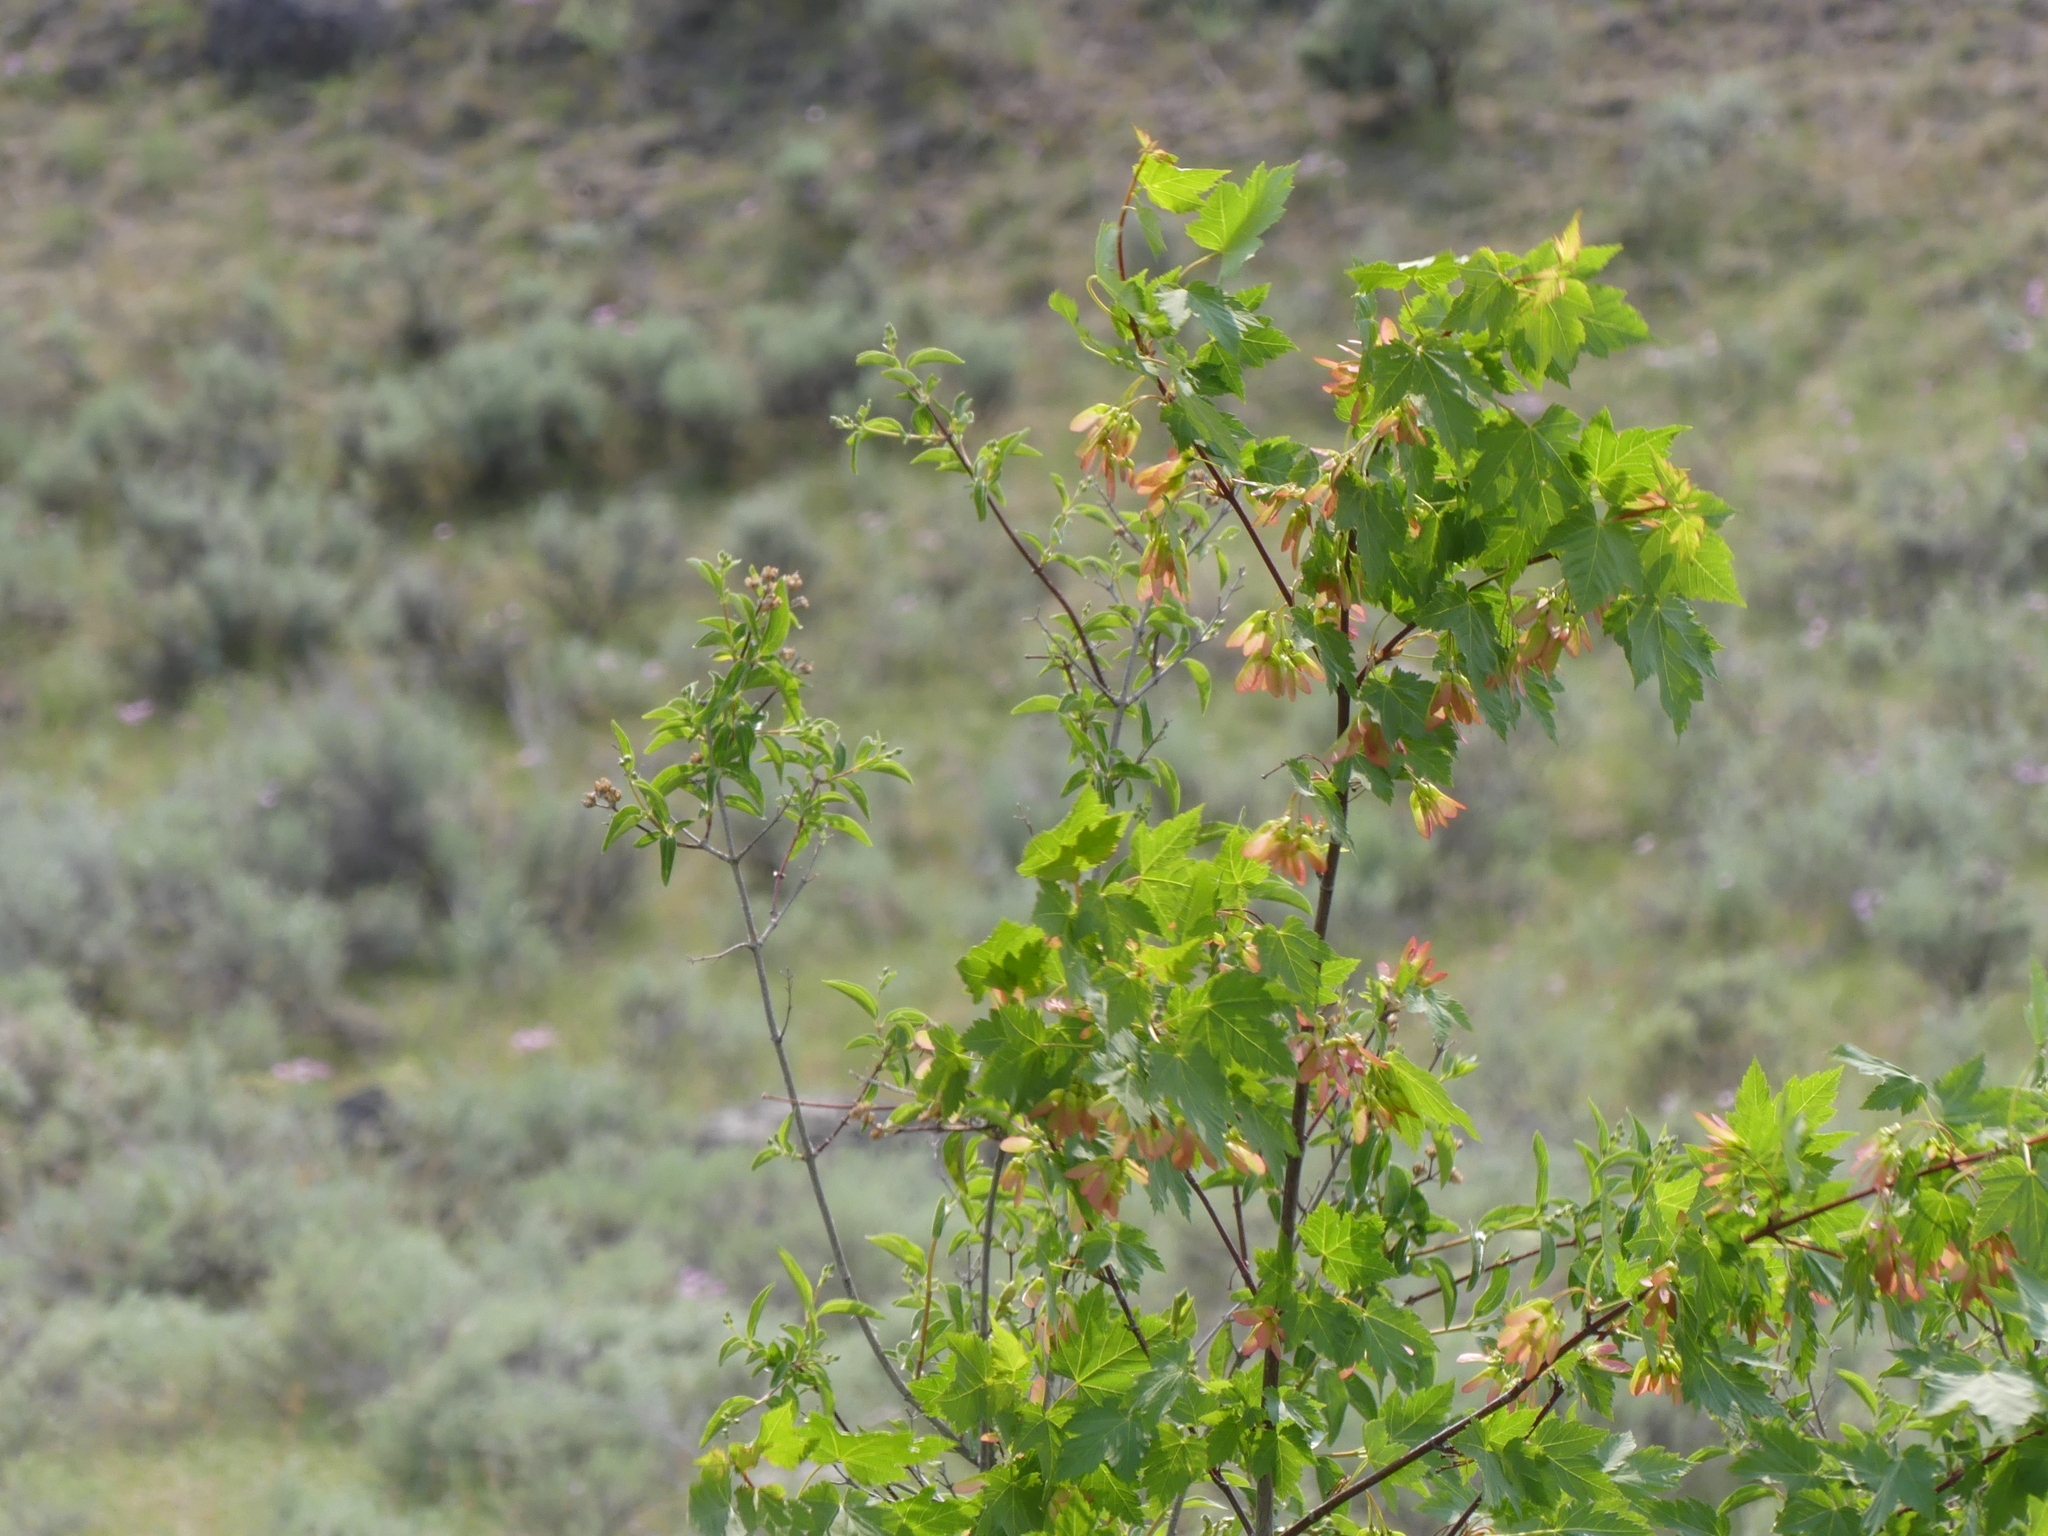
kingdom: Plantae
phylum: Tracheophyta
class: Magnoliopsida
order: Sapindales
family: Sapindaceae
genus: Acer
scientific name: Acer glabrum
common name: Rocky mountain maple
